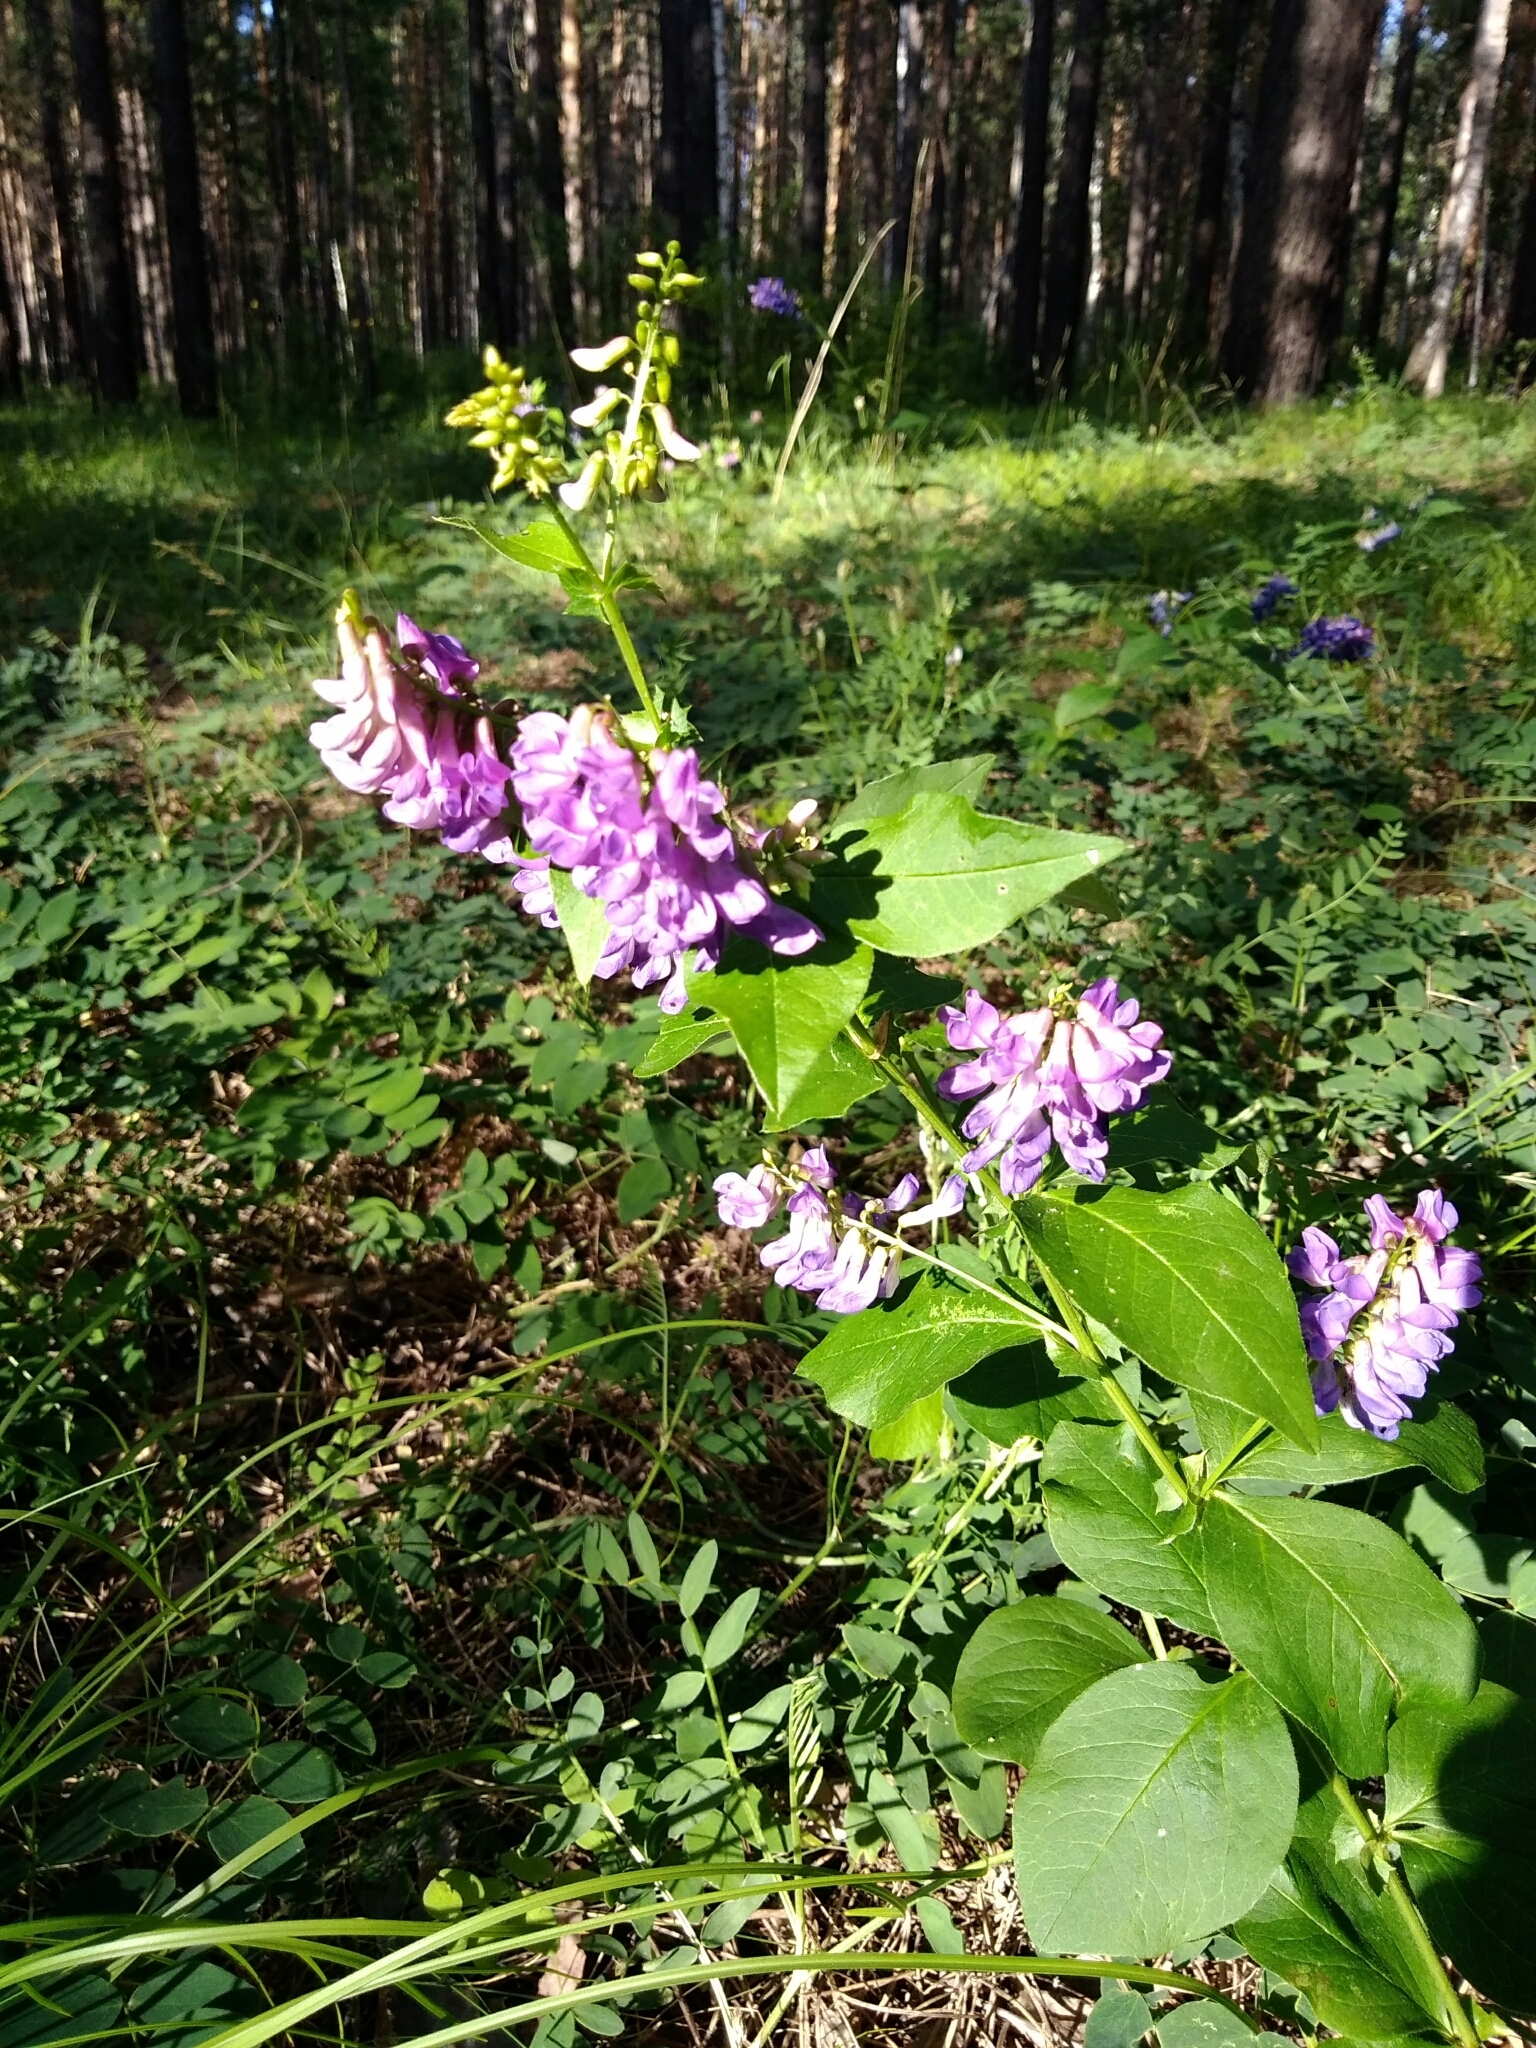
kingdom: Plantae
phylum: Tracheophyta
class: Magnoliopsida
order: Fabales
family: Fabaceae
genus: Vicia
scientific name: Vicia unijuga
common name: Two-leaf vetch
